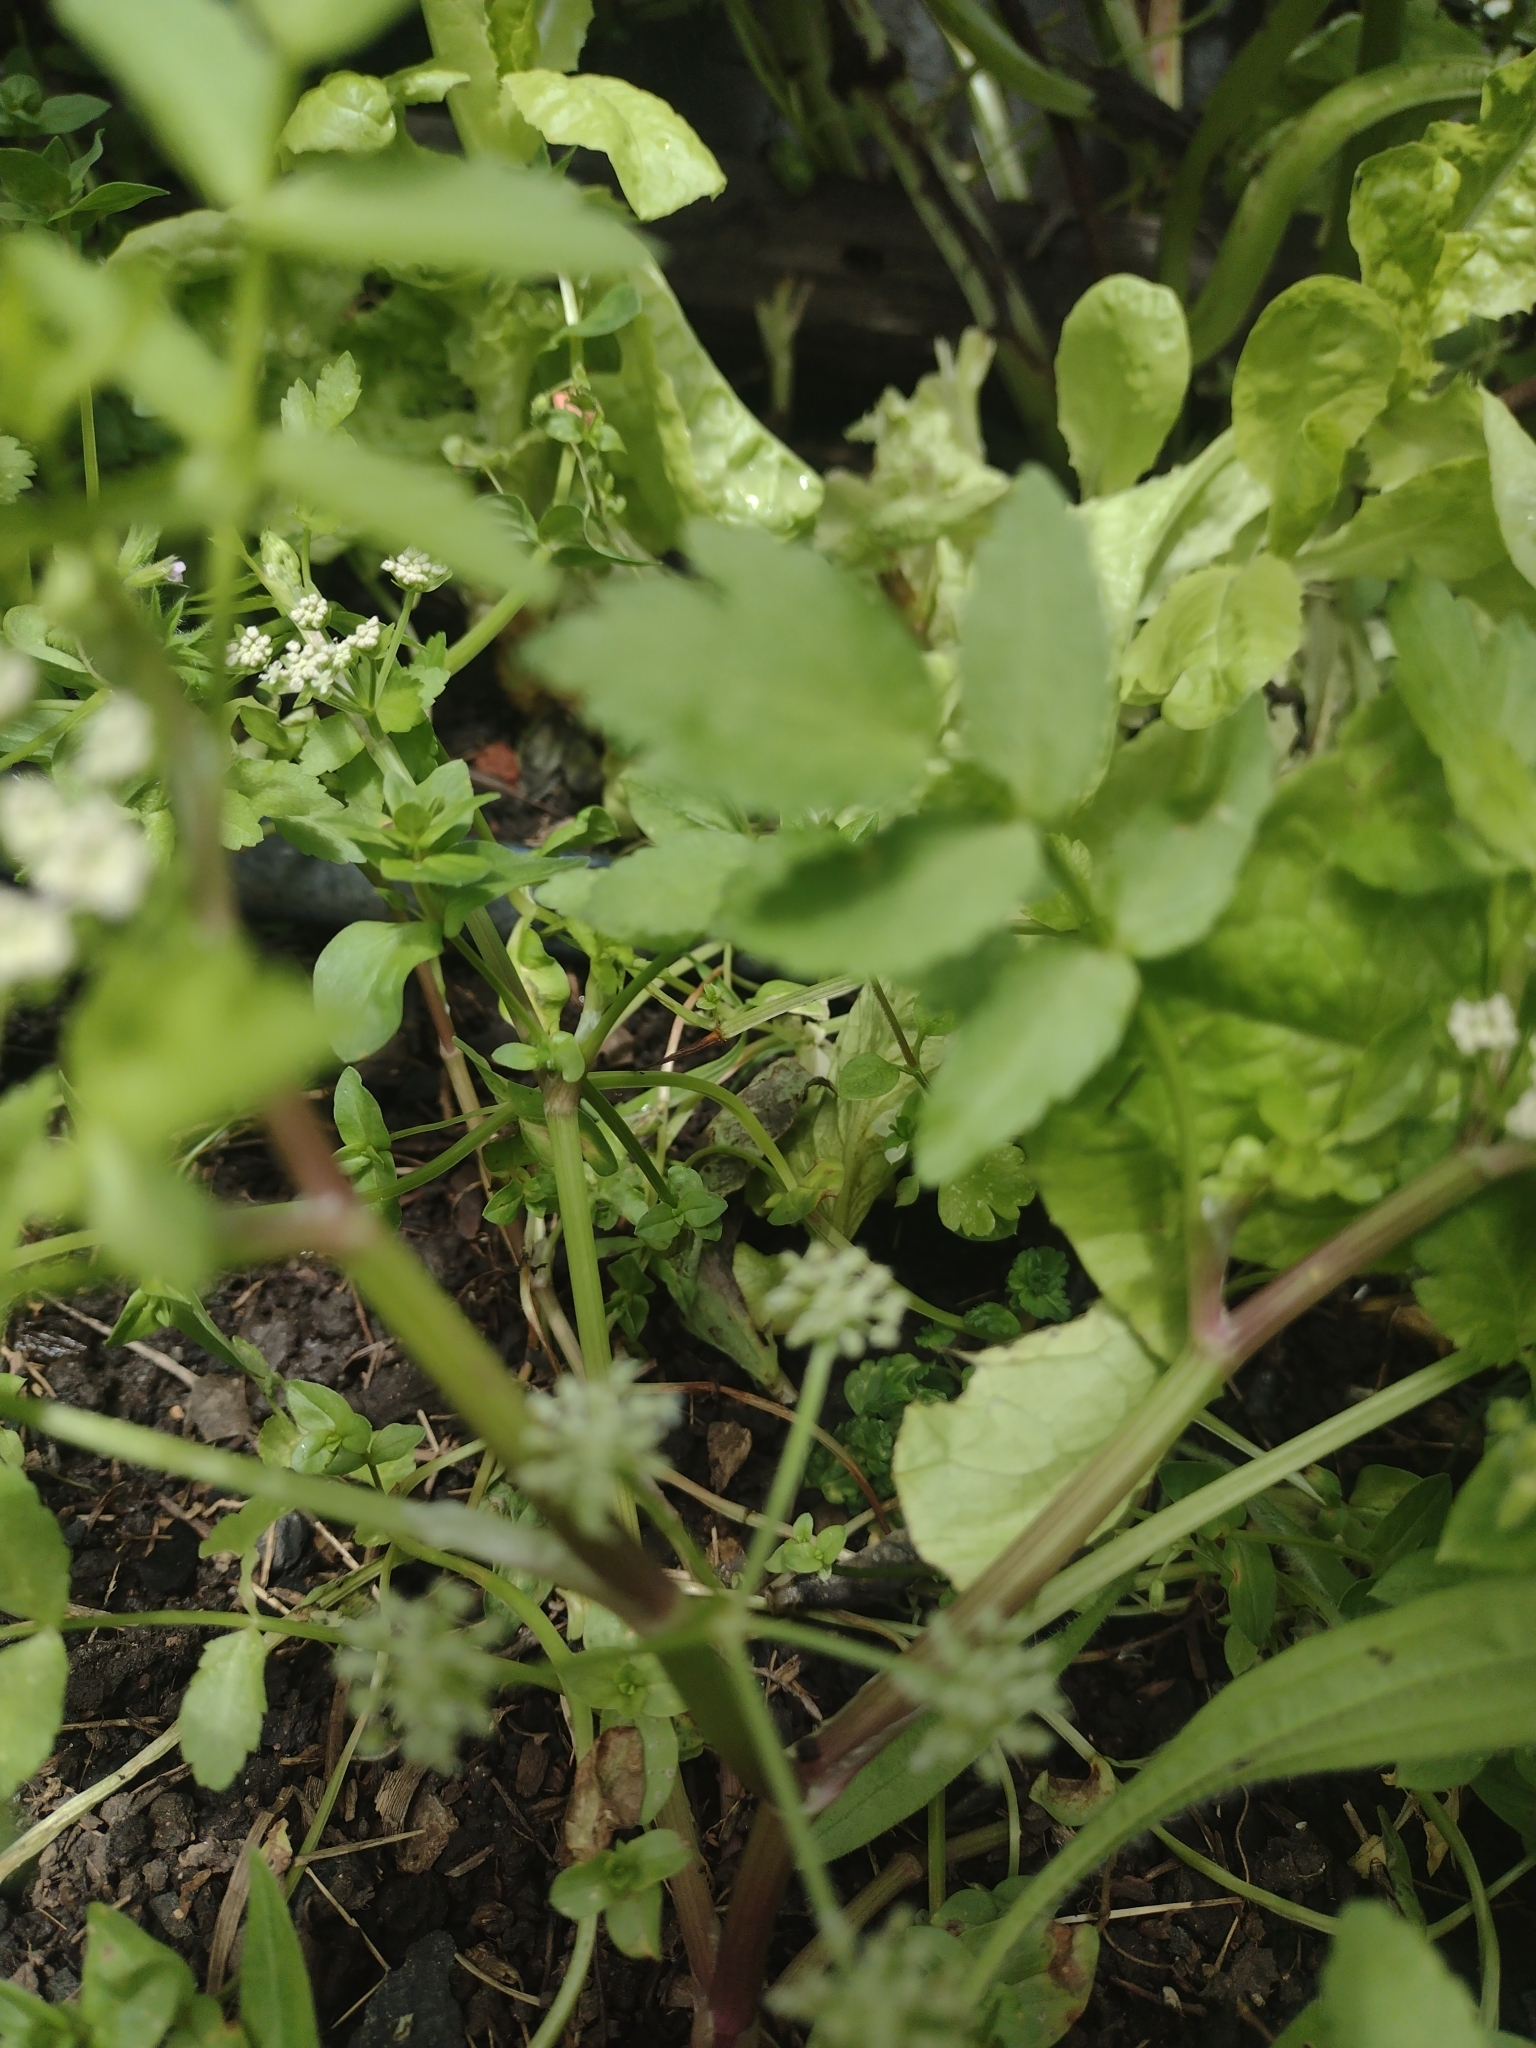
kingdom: Plantae
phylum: Tracheophyta
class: Magnoliopsida
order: Apiales
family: Apiaceae
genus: Helosciadium
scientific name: Helosciadium nodiflorum
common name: Fool's-watercress
